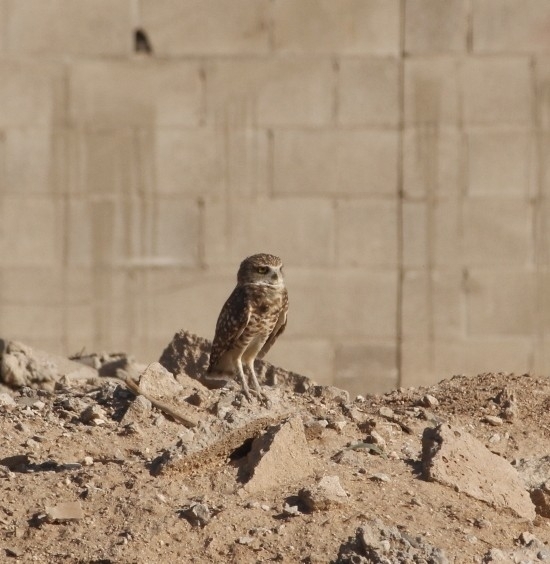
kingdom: Animalia
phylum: Chordata
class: Aves
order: Strigiformes
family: Strigidae
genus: Athene
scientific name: Athene cunicularia
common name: Burrowing owl
